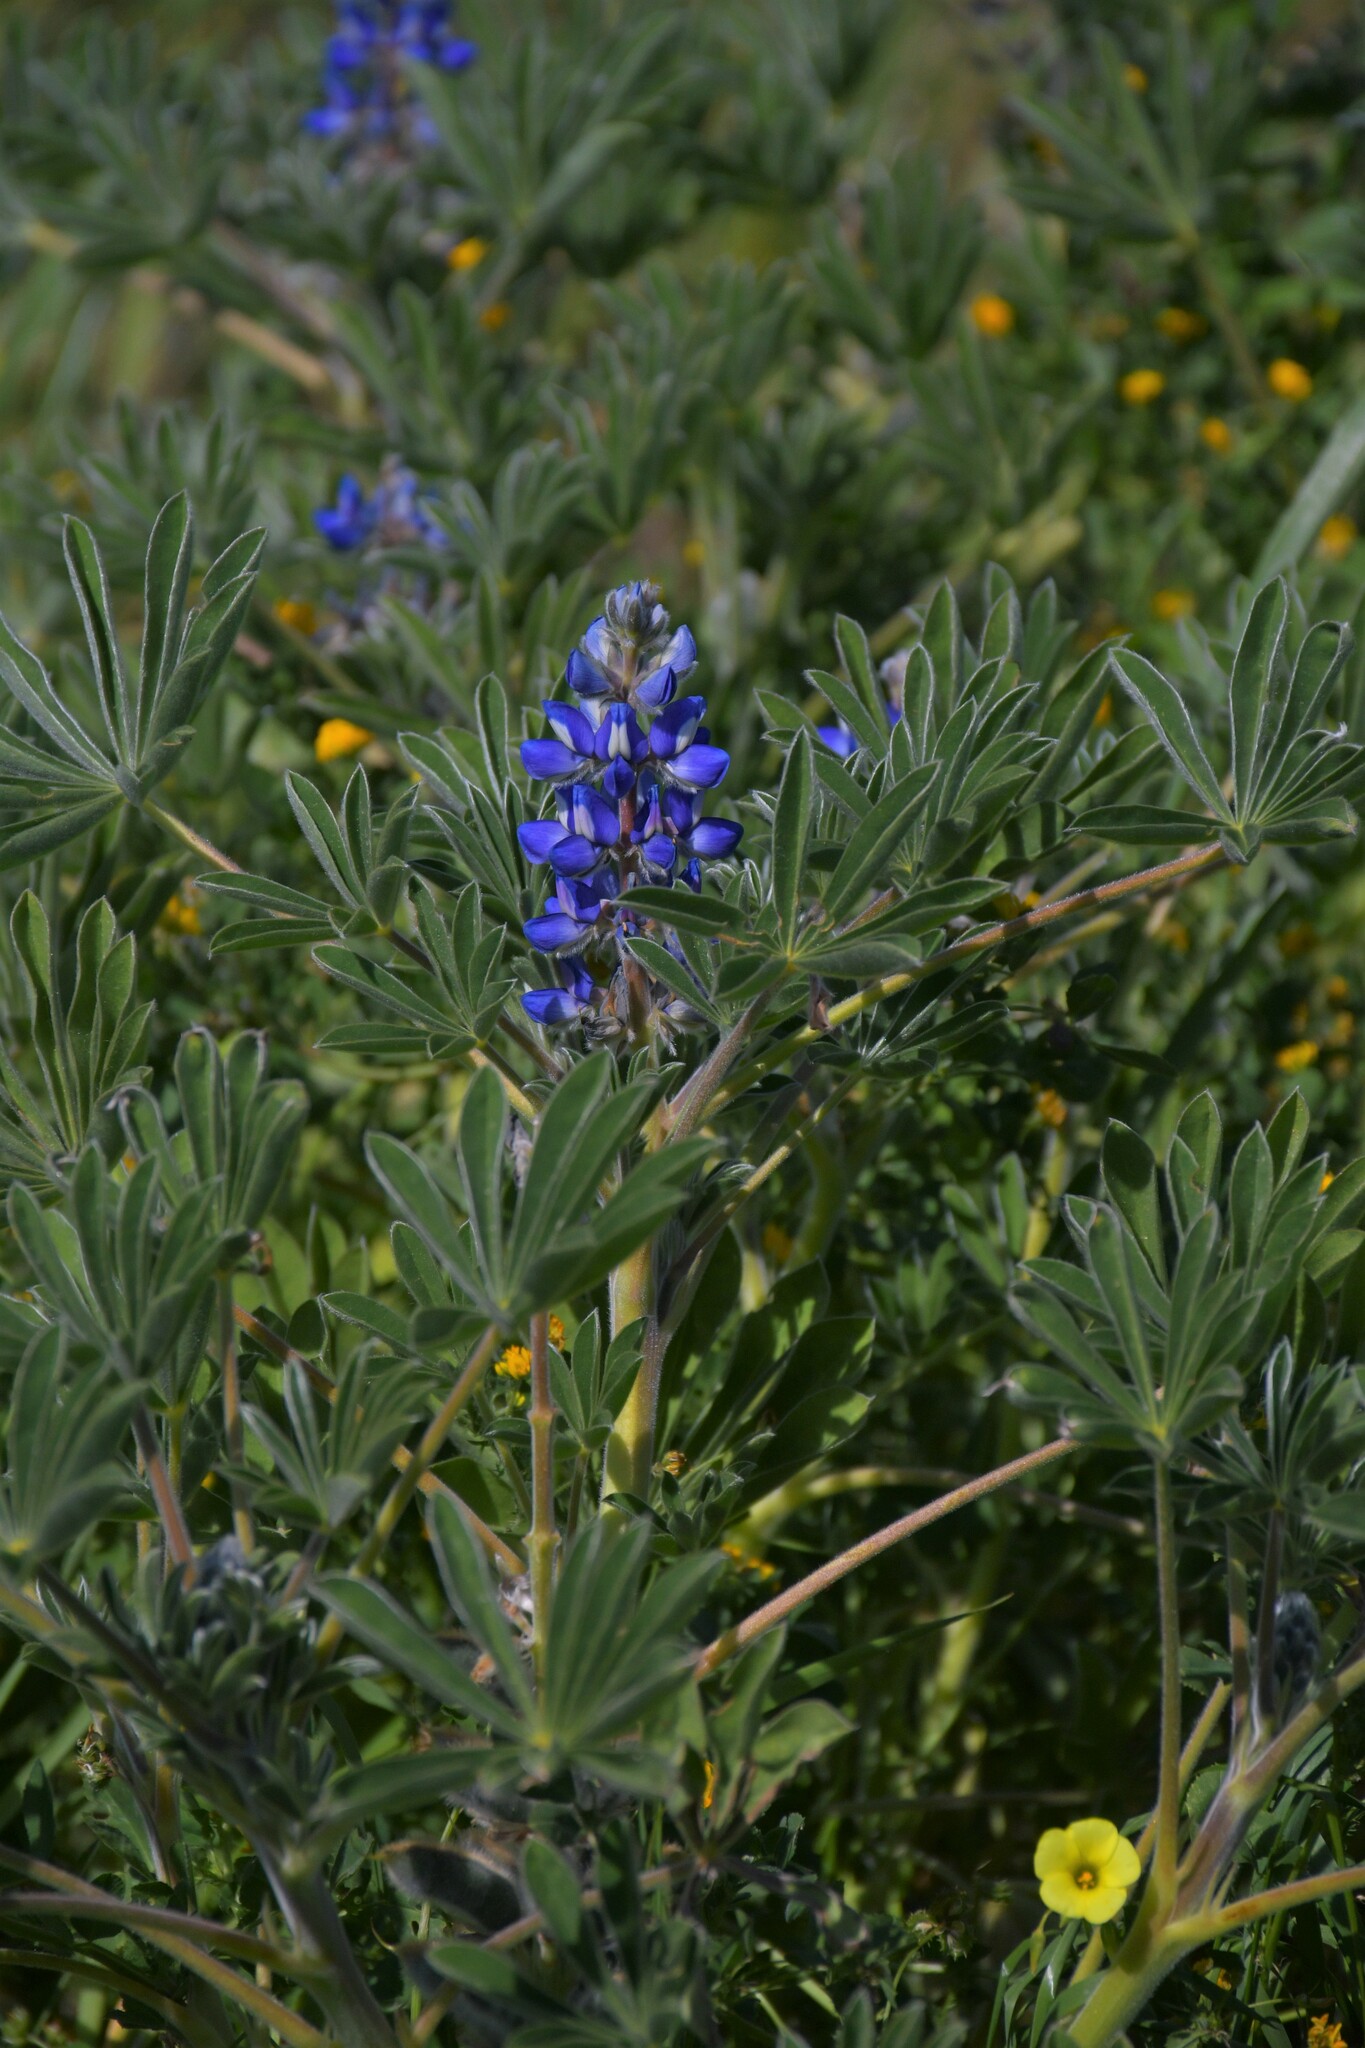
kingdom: Plantae
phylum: Tracheophyta
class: Magnoliopsida
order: Fabales
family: Fabaceae
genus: Lupinus
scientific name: Lupinus cosentinii
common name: Hairy blue lupin
